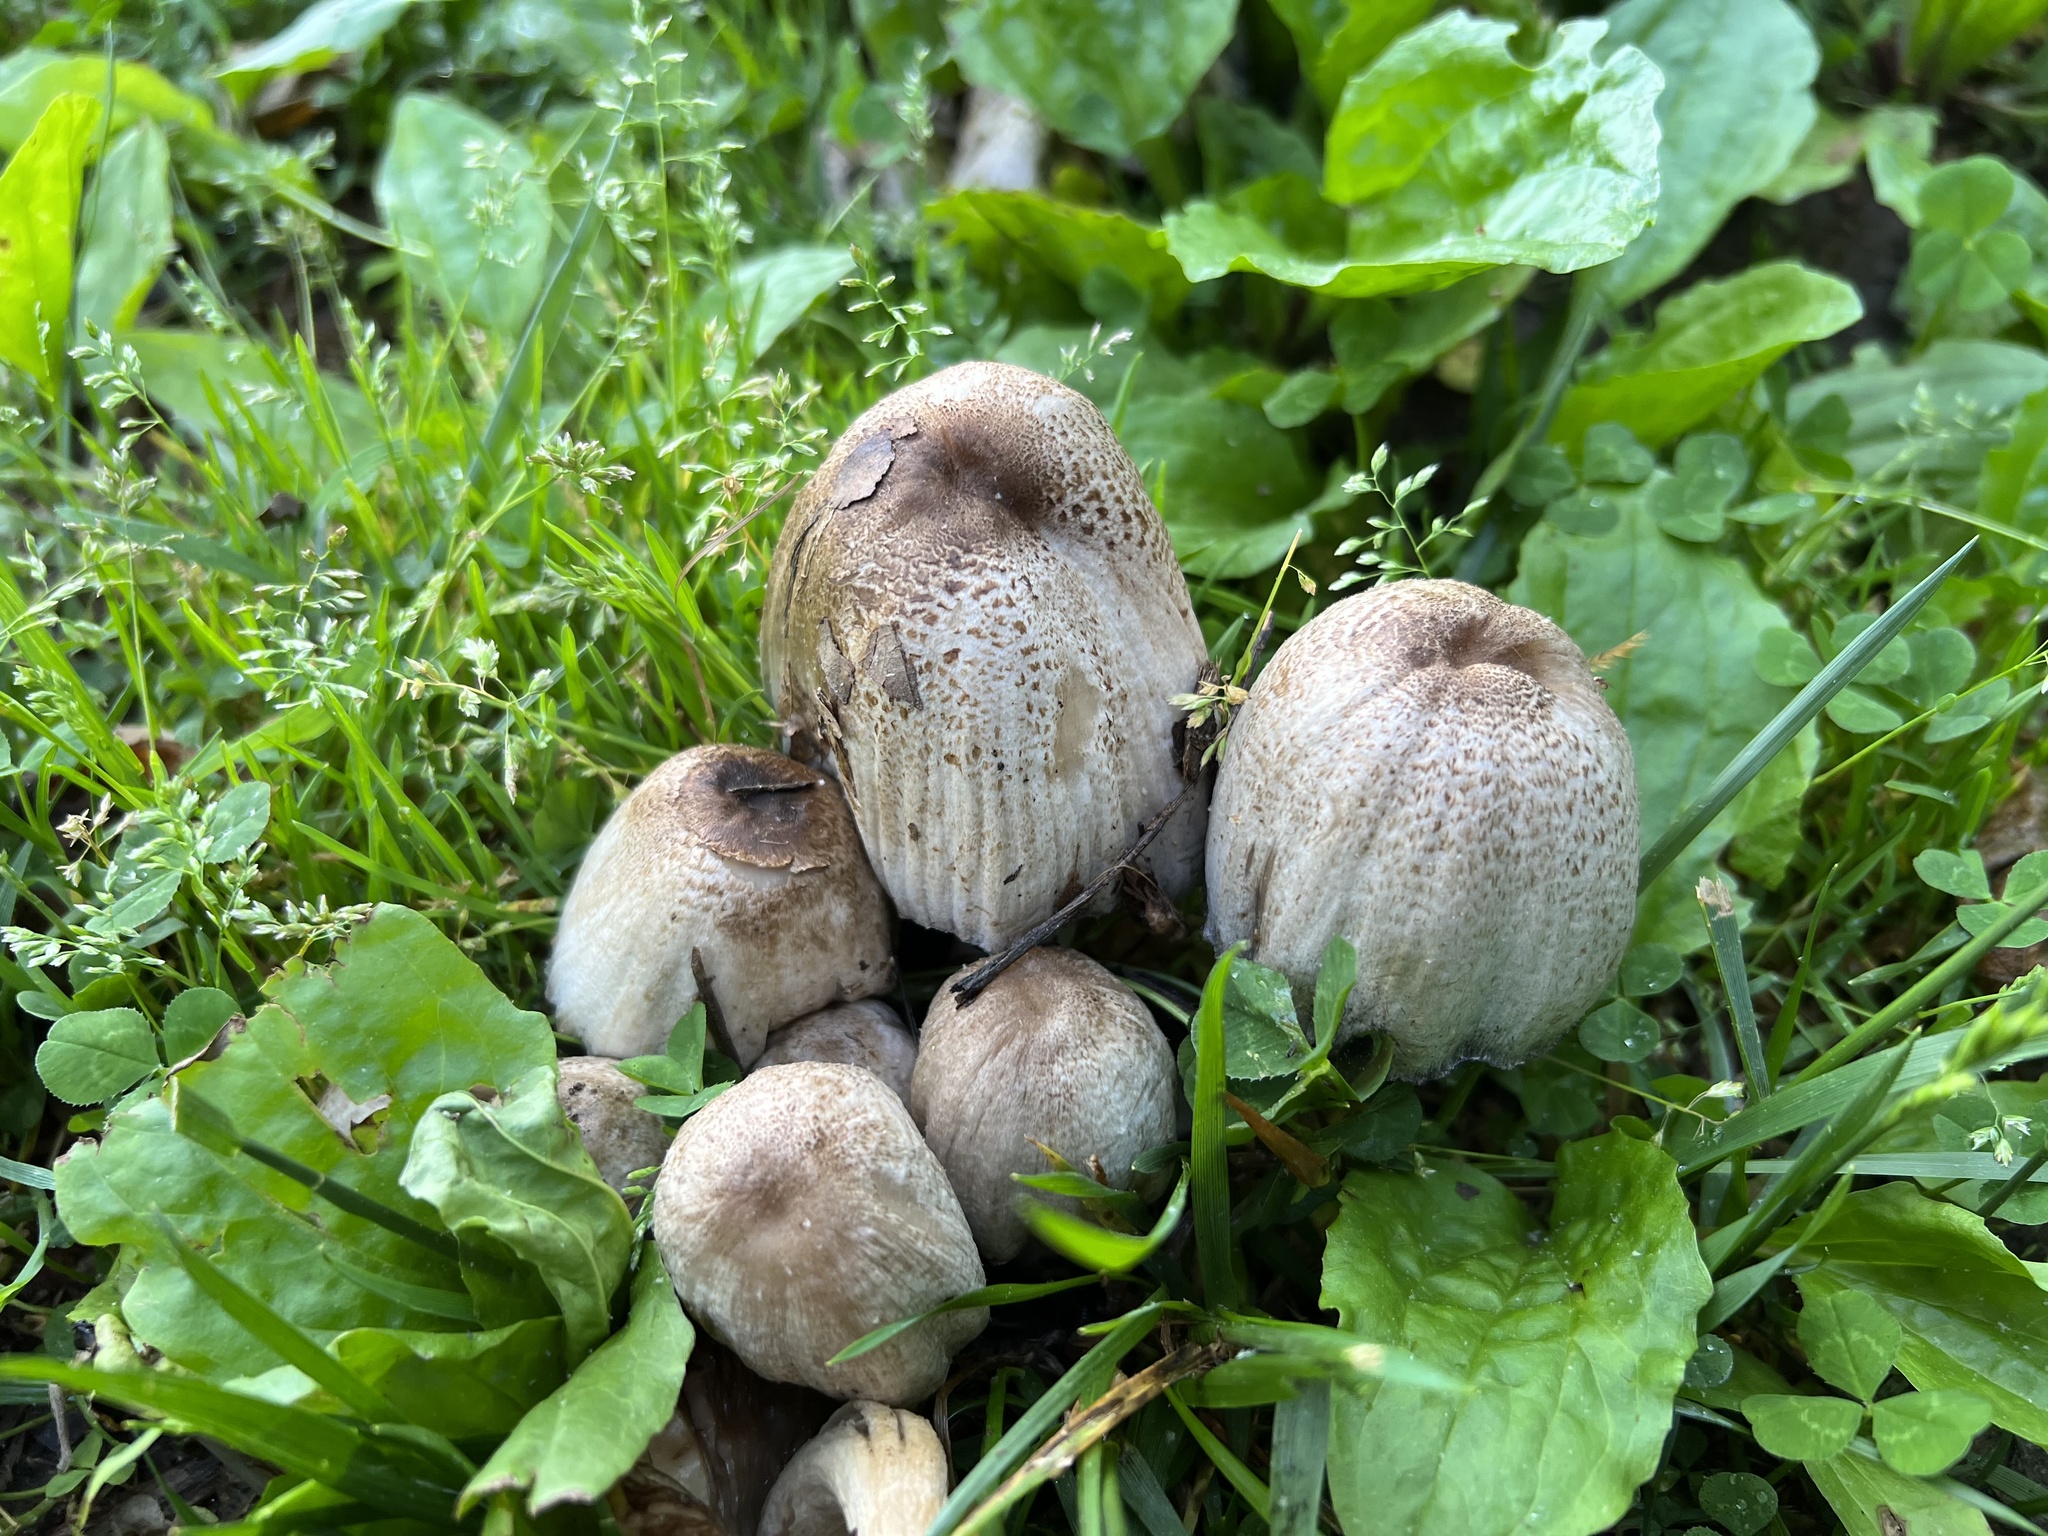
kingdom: Fungi
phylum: Basidiomycota
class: Agaricomycetes
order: Agaricales
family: Psathyrellaceae
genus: Coprinopsis
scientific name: Coprinopsis romagnesiana
